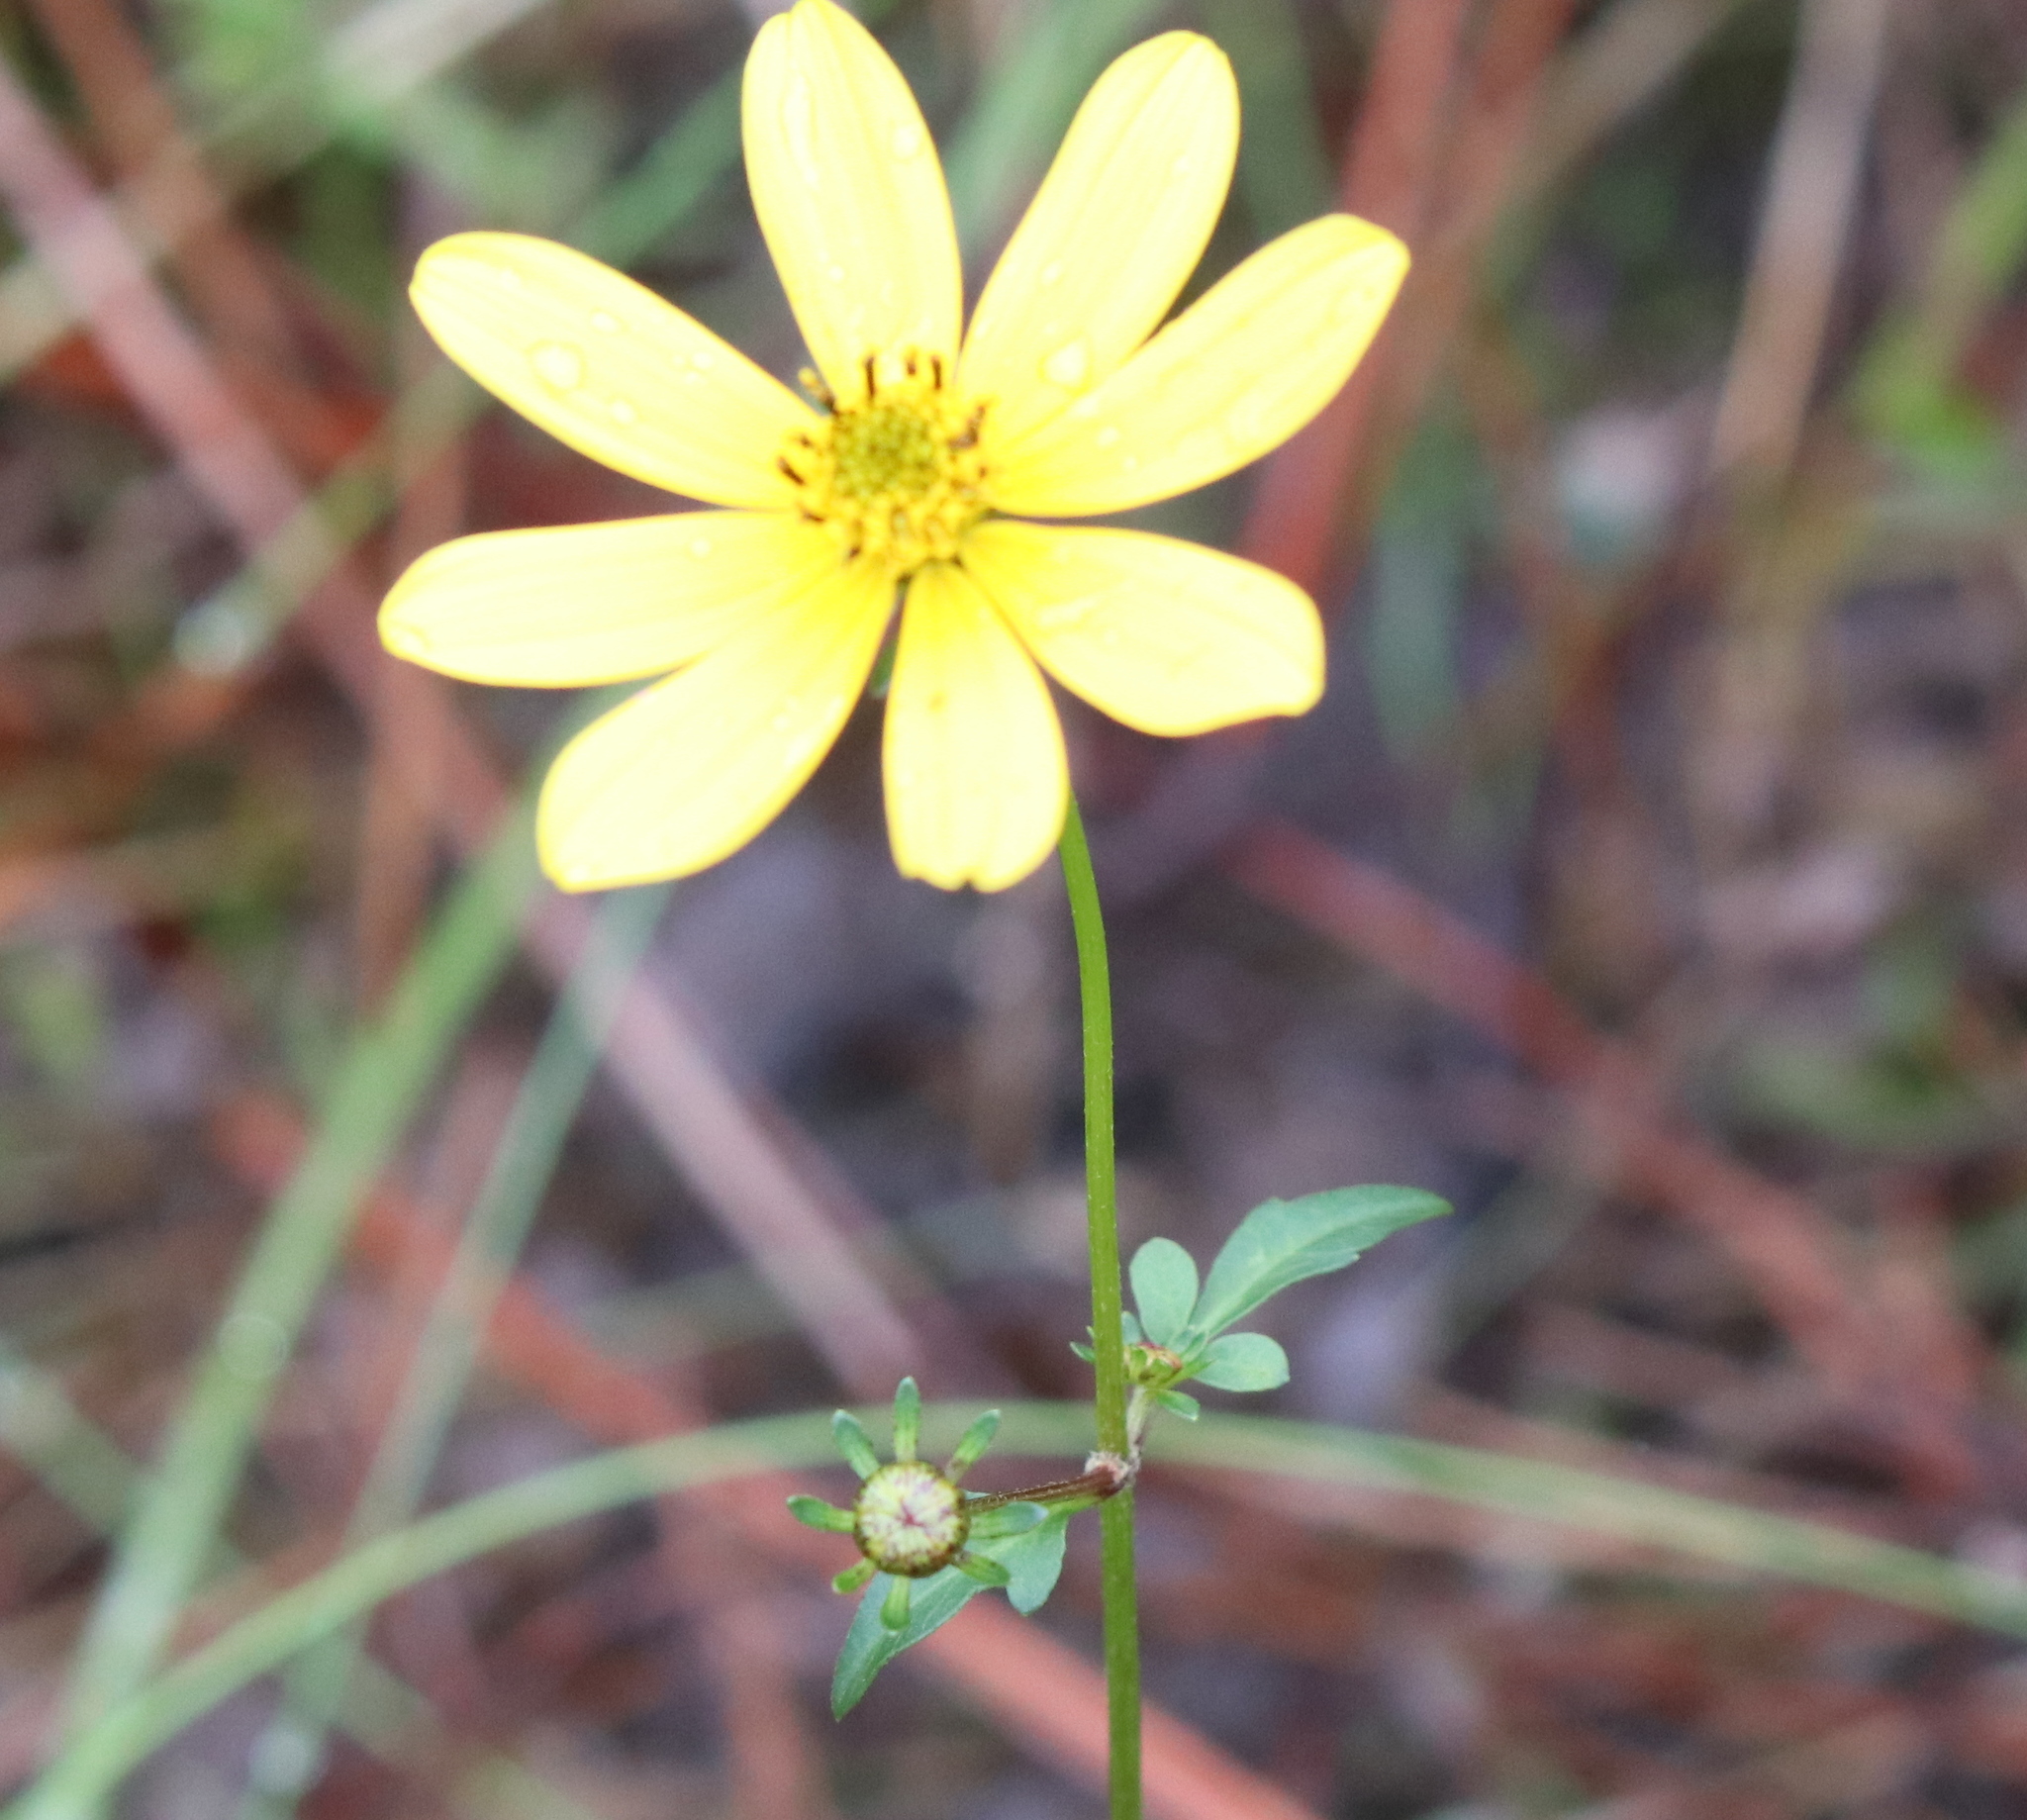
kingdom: Plantae
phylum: Tracheophyta
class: Magnoliopsida
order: Asterales
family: Asteraceae
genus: Bidens
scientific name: Bidens mitis
